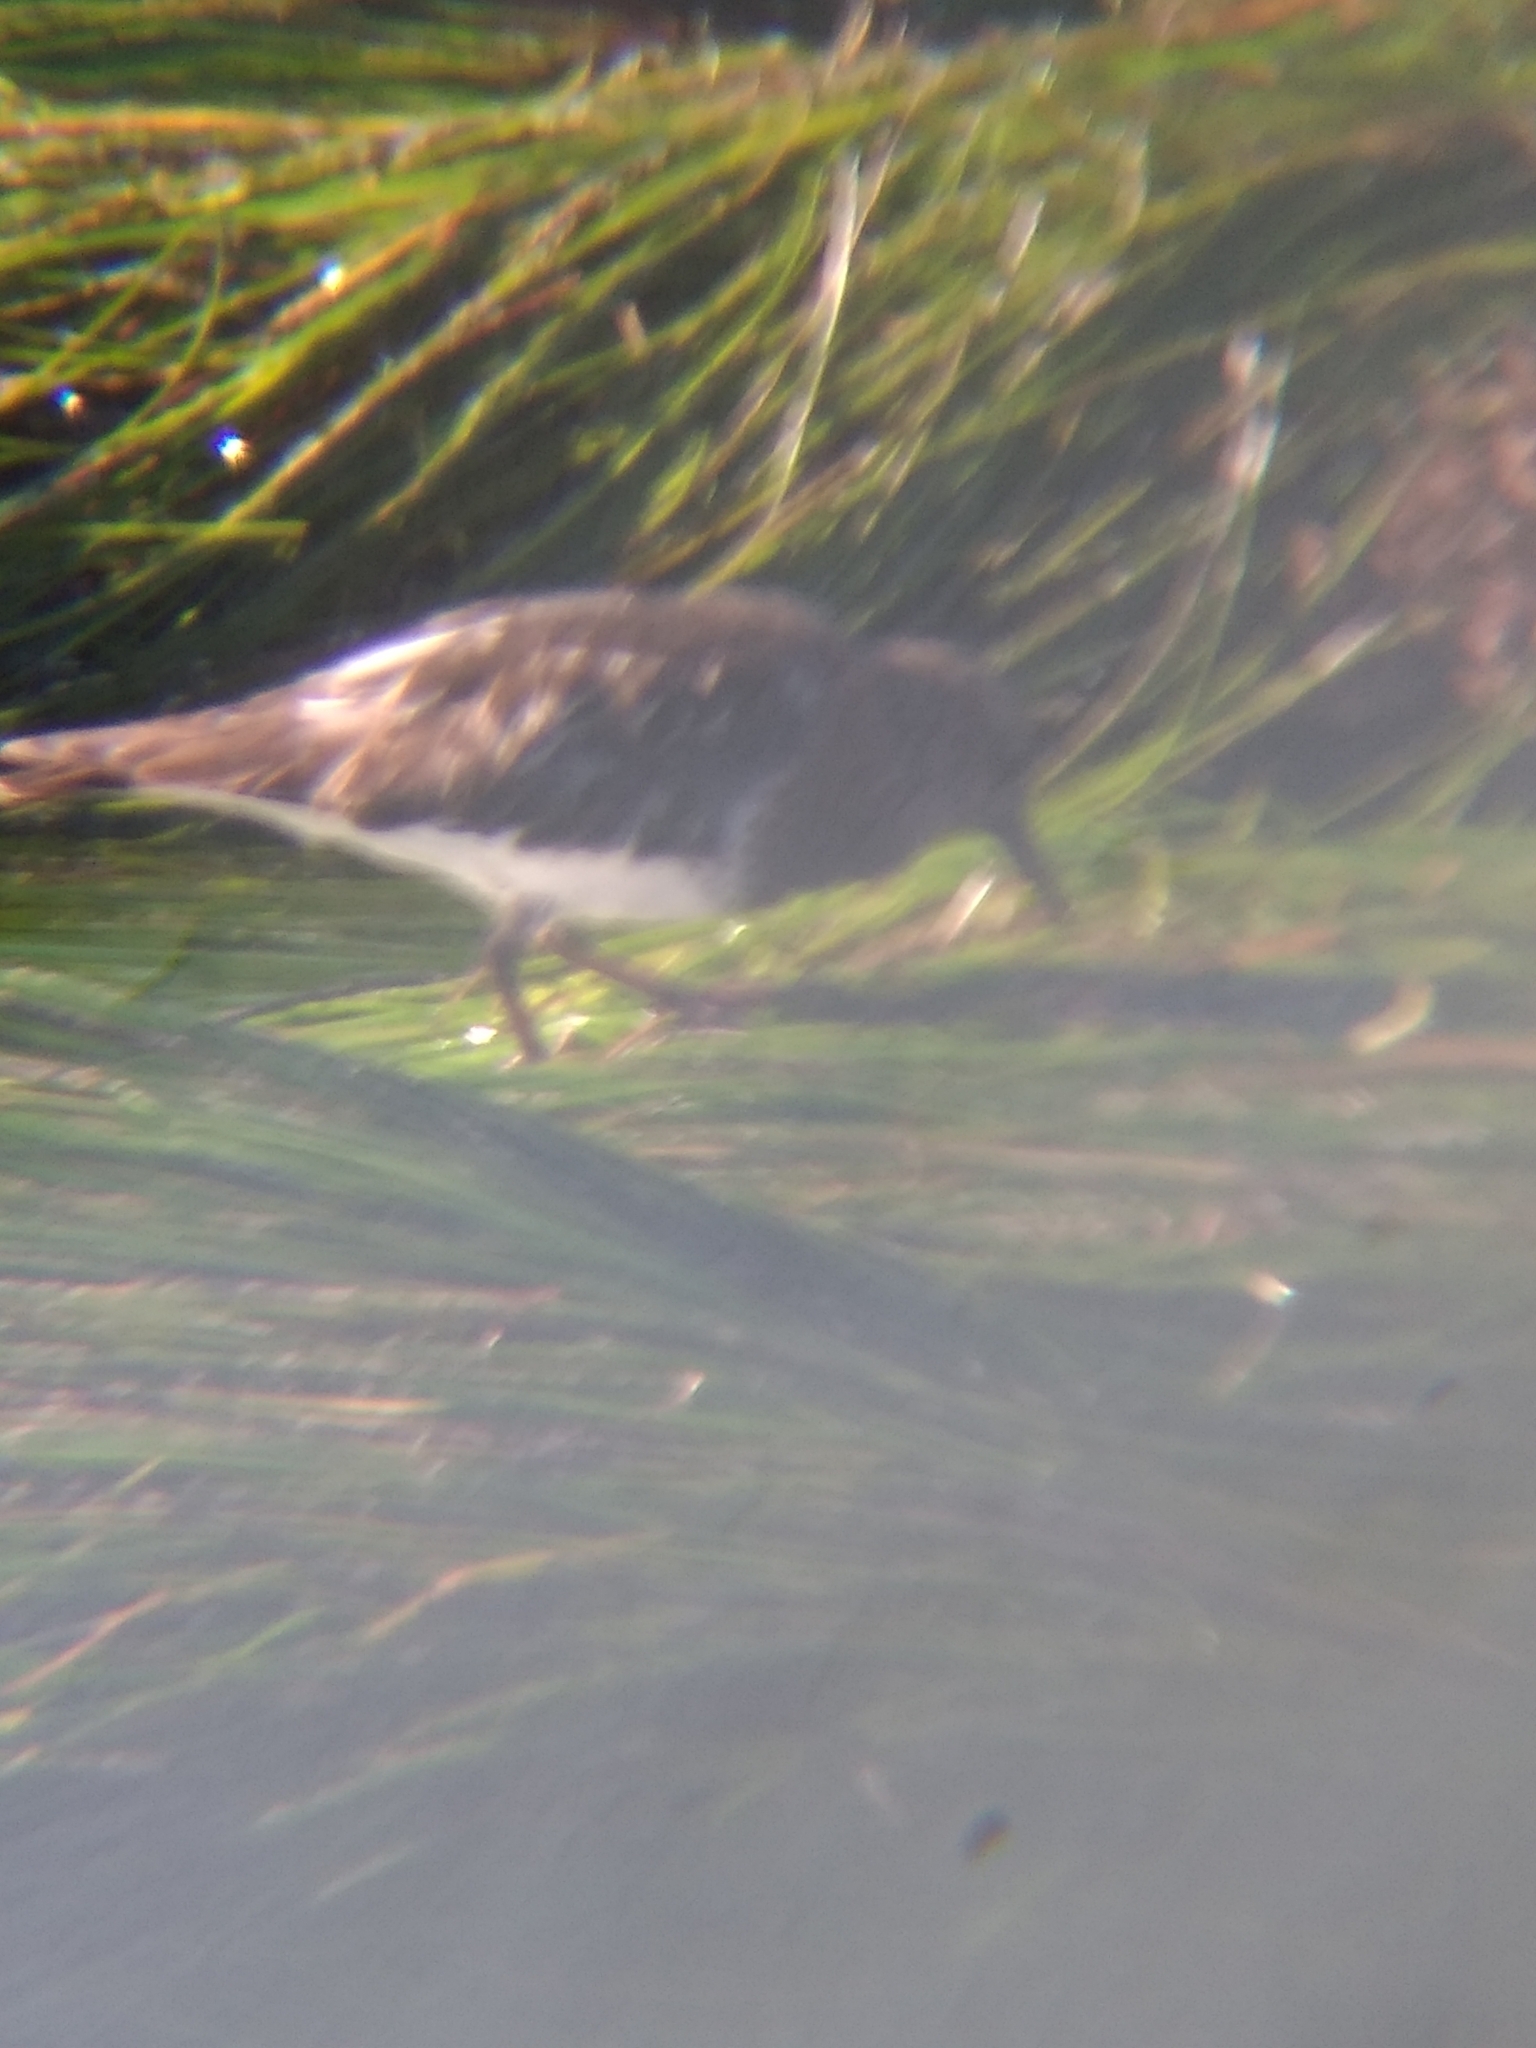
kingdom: Animalia
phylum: Chordata
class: Aves
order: Charadriiformes
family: Scolopacidae
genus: Arenaria
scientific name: Arenaria melanocephala
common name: Black turnstone
